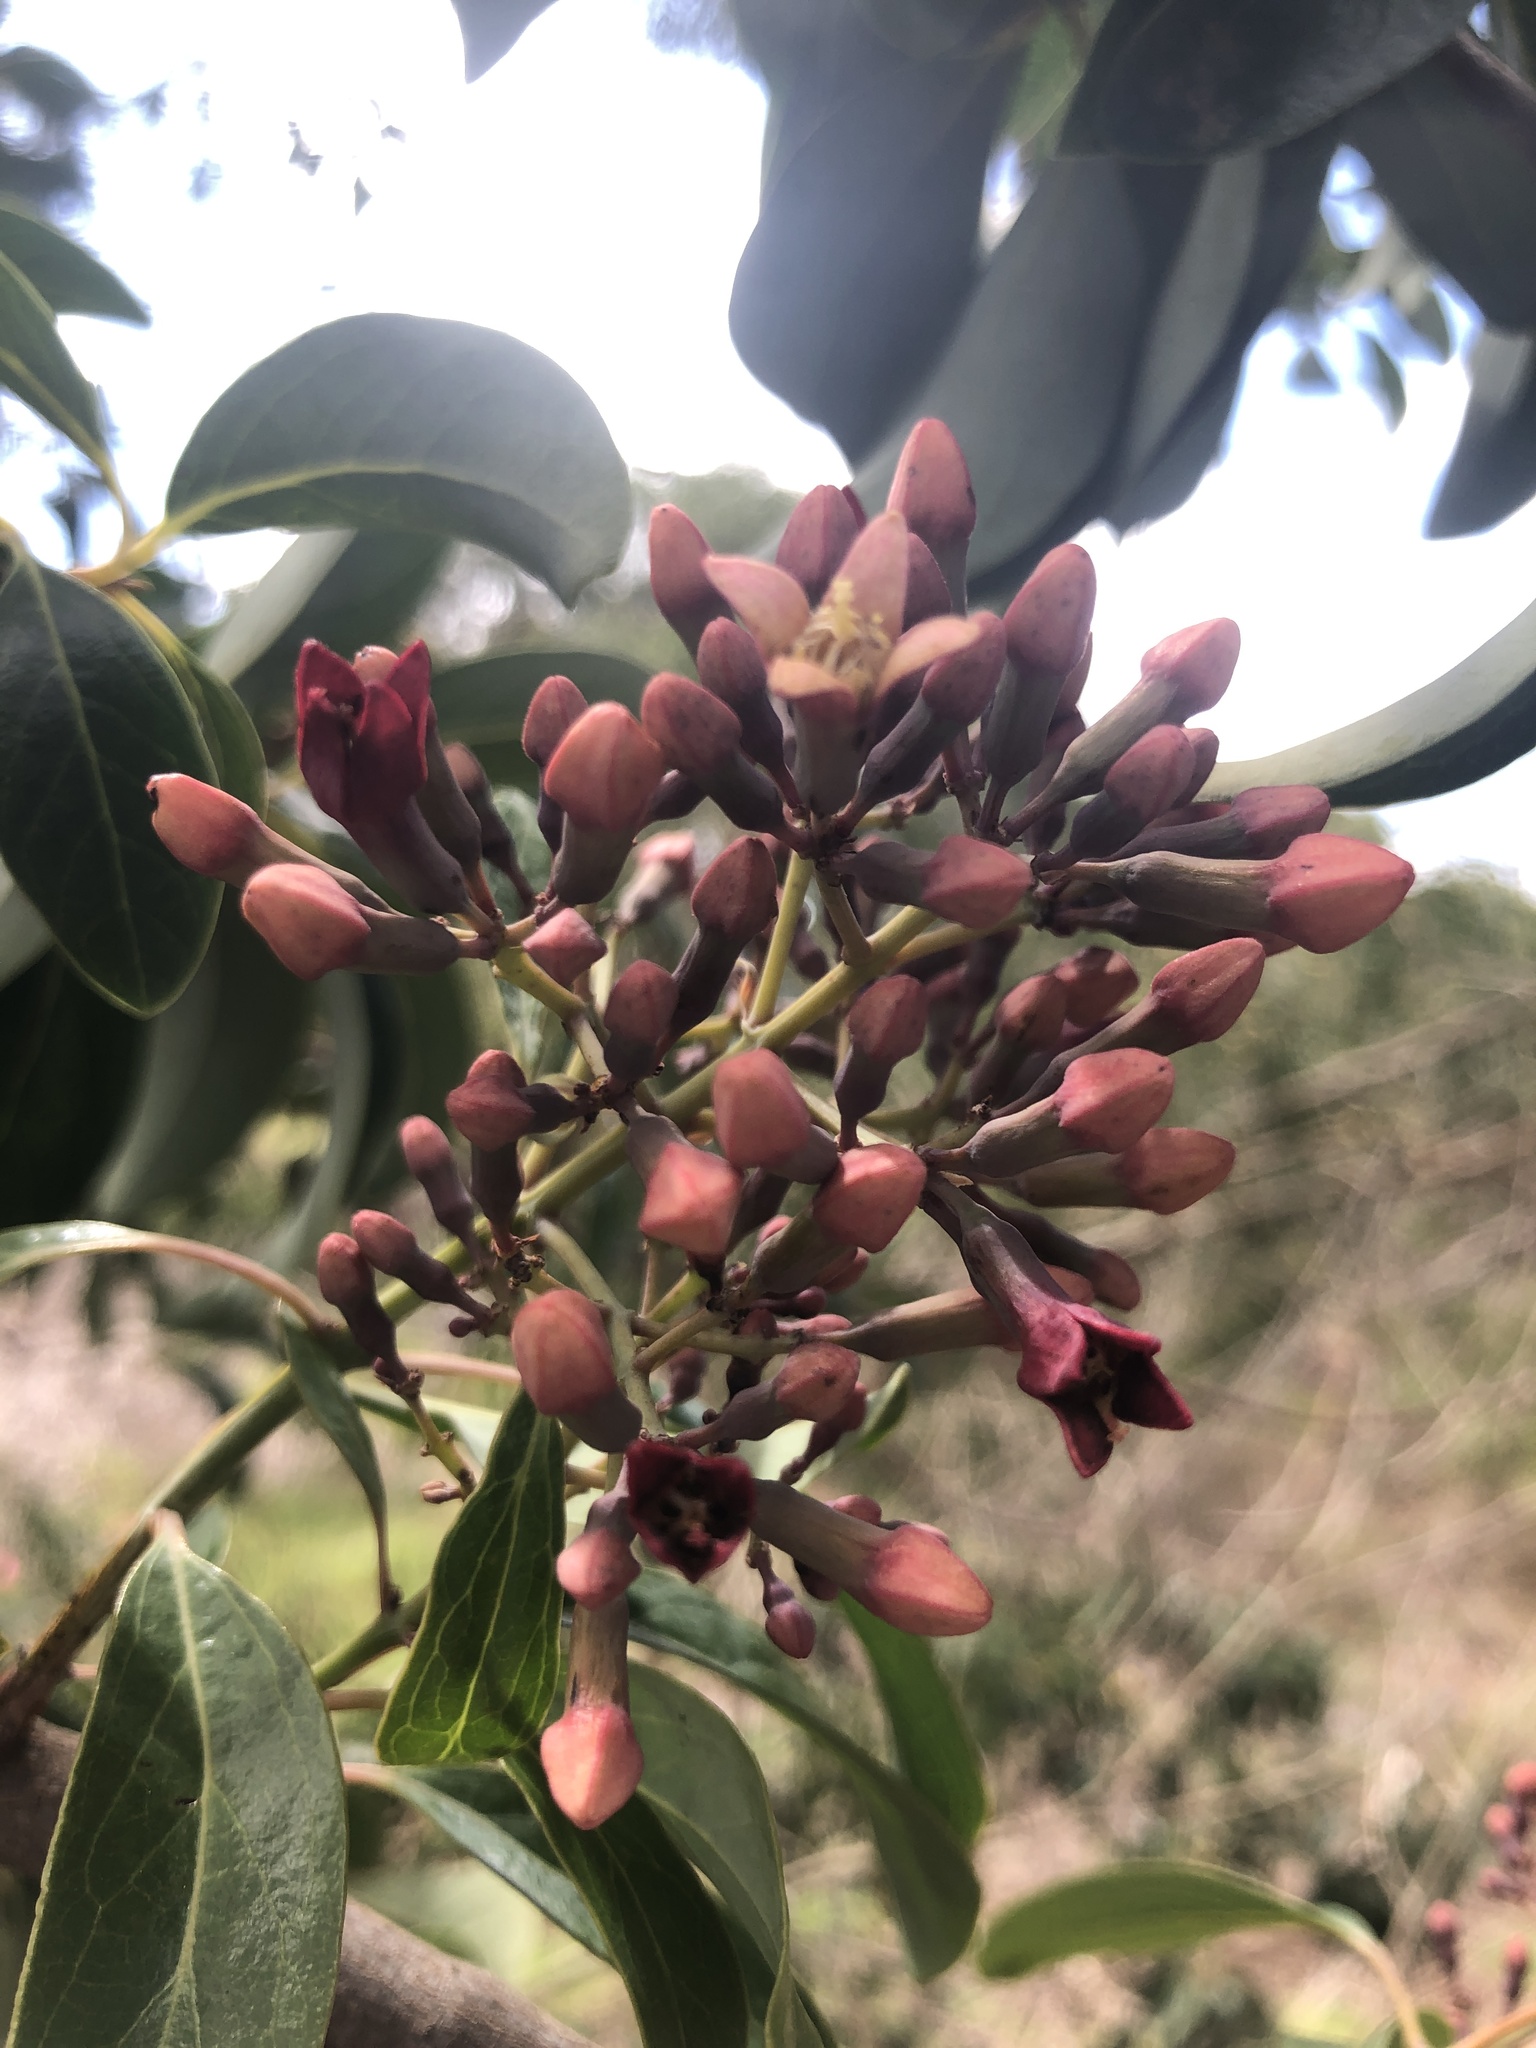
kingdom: Plantae
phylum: Tracheophyta
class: Magnoliopsida
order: Santalales
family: Santalaceae
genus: Santalum
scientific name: Santalum haleakalae
